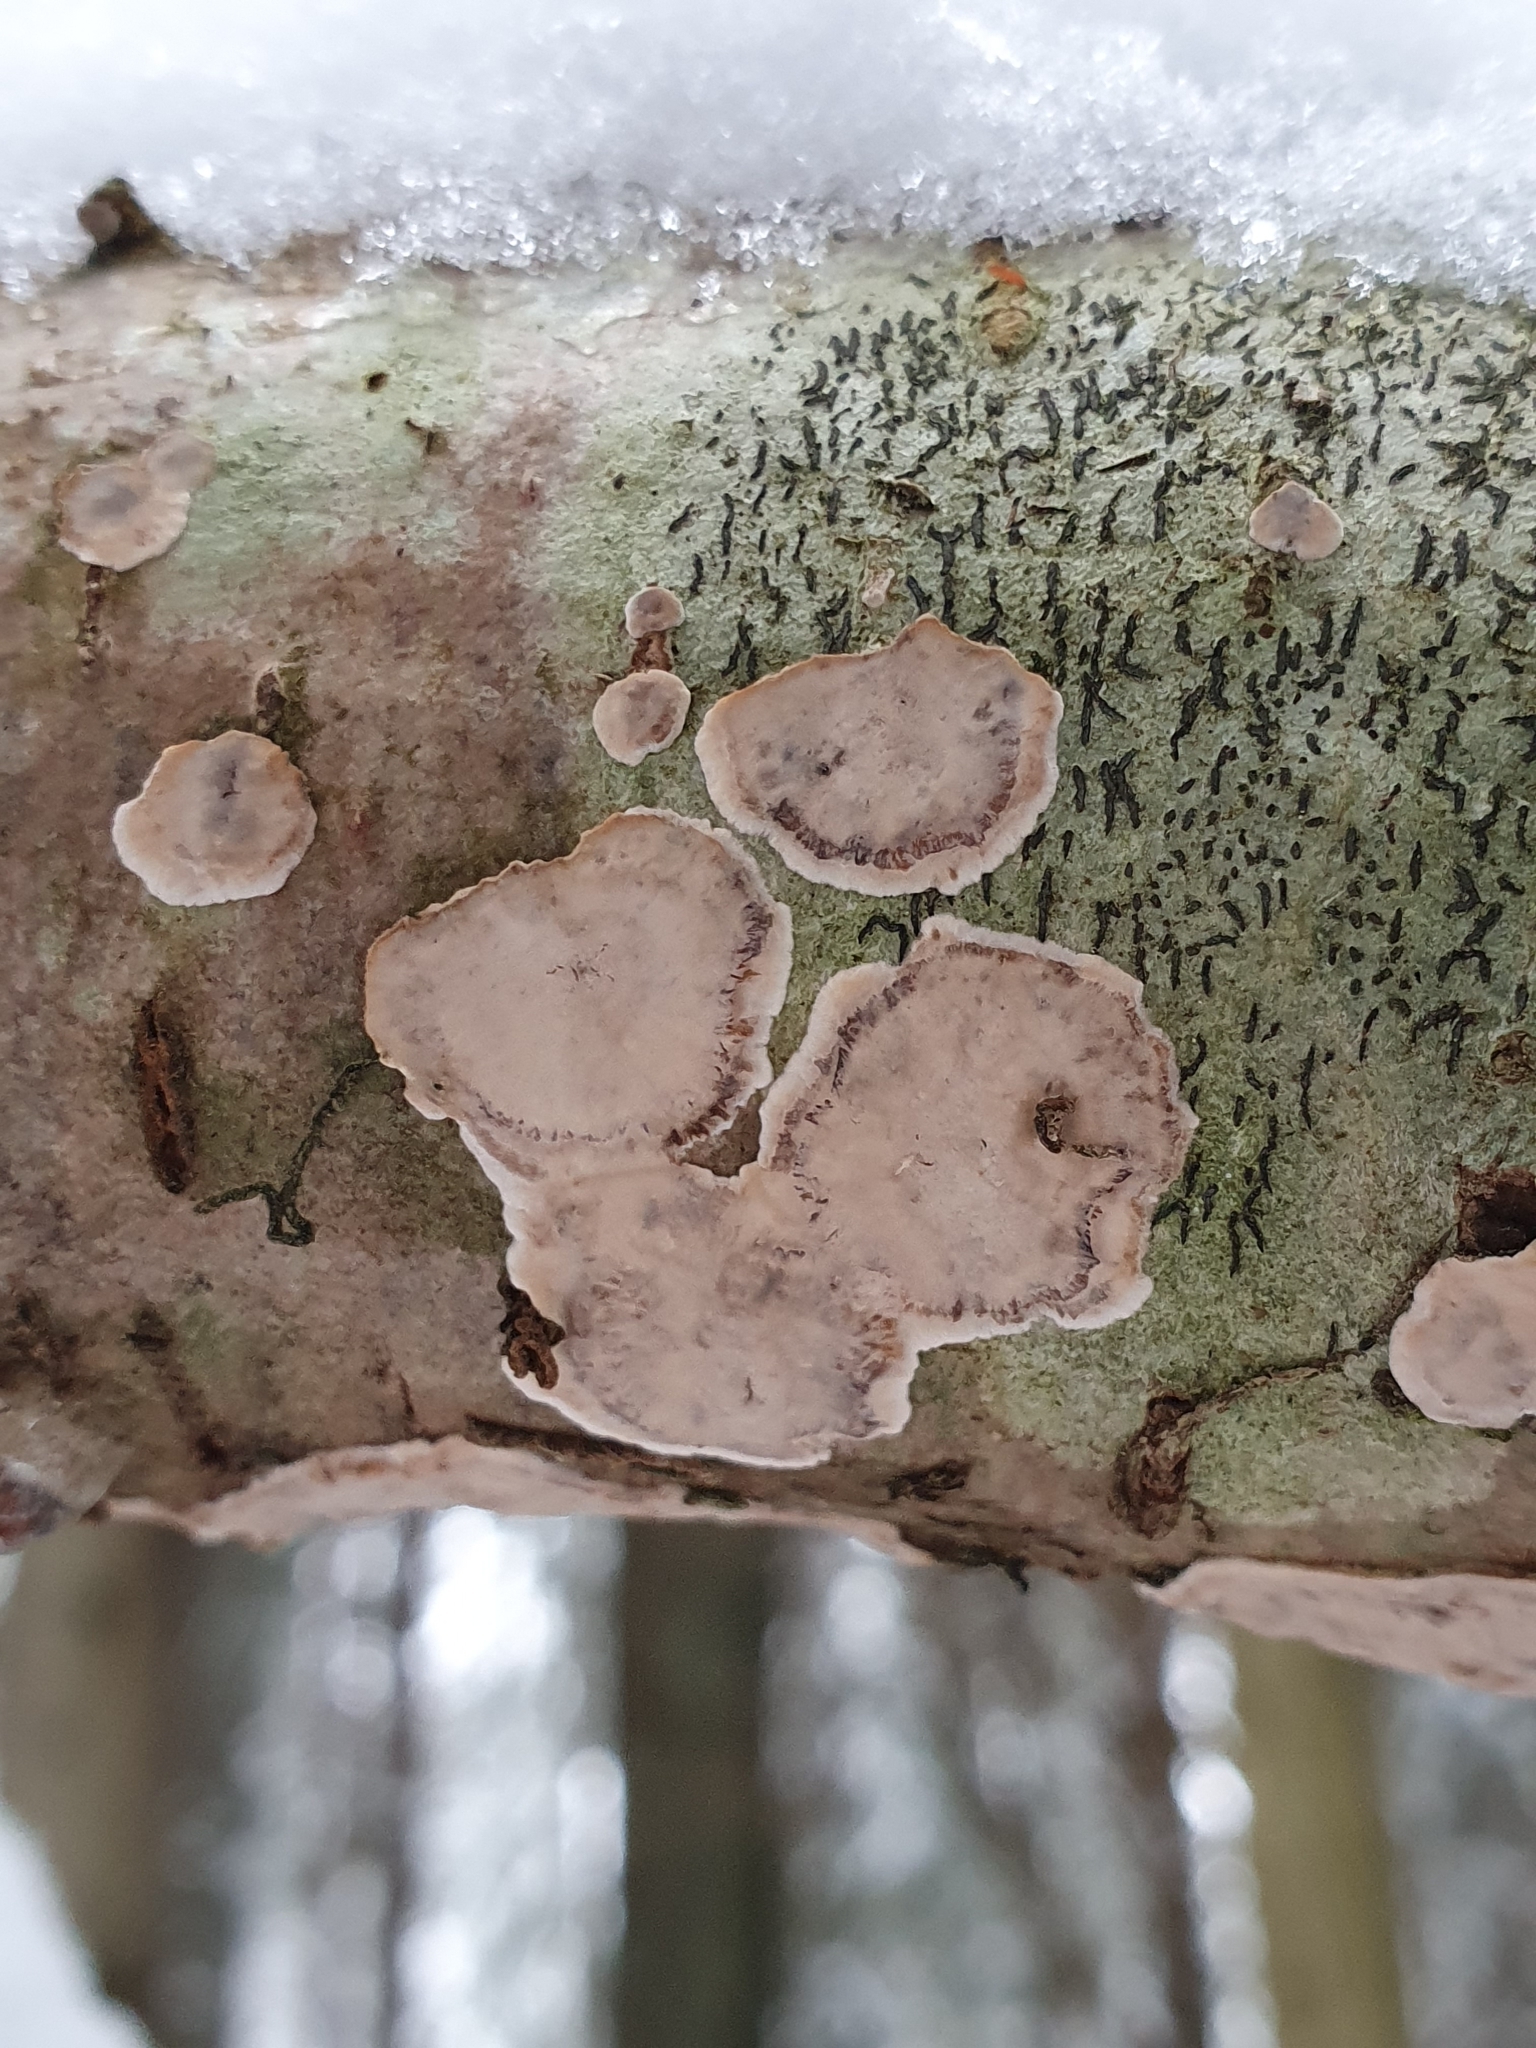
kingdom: Fungi
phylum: Basidiomycota
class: Agaricomycetes
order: Russulales
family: Stereaceae
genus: Stereum
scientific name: Stereum rugosum
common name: Bleeding broadleaf crust
